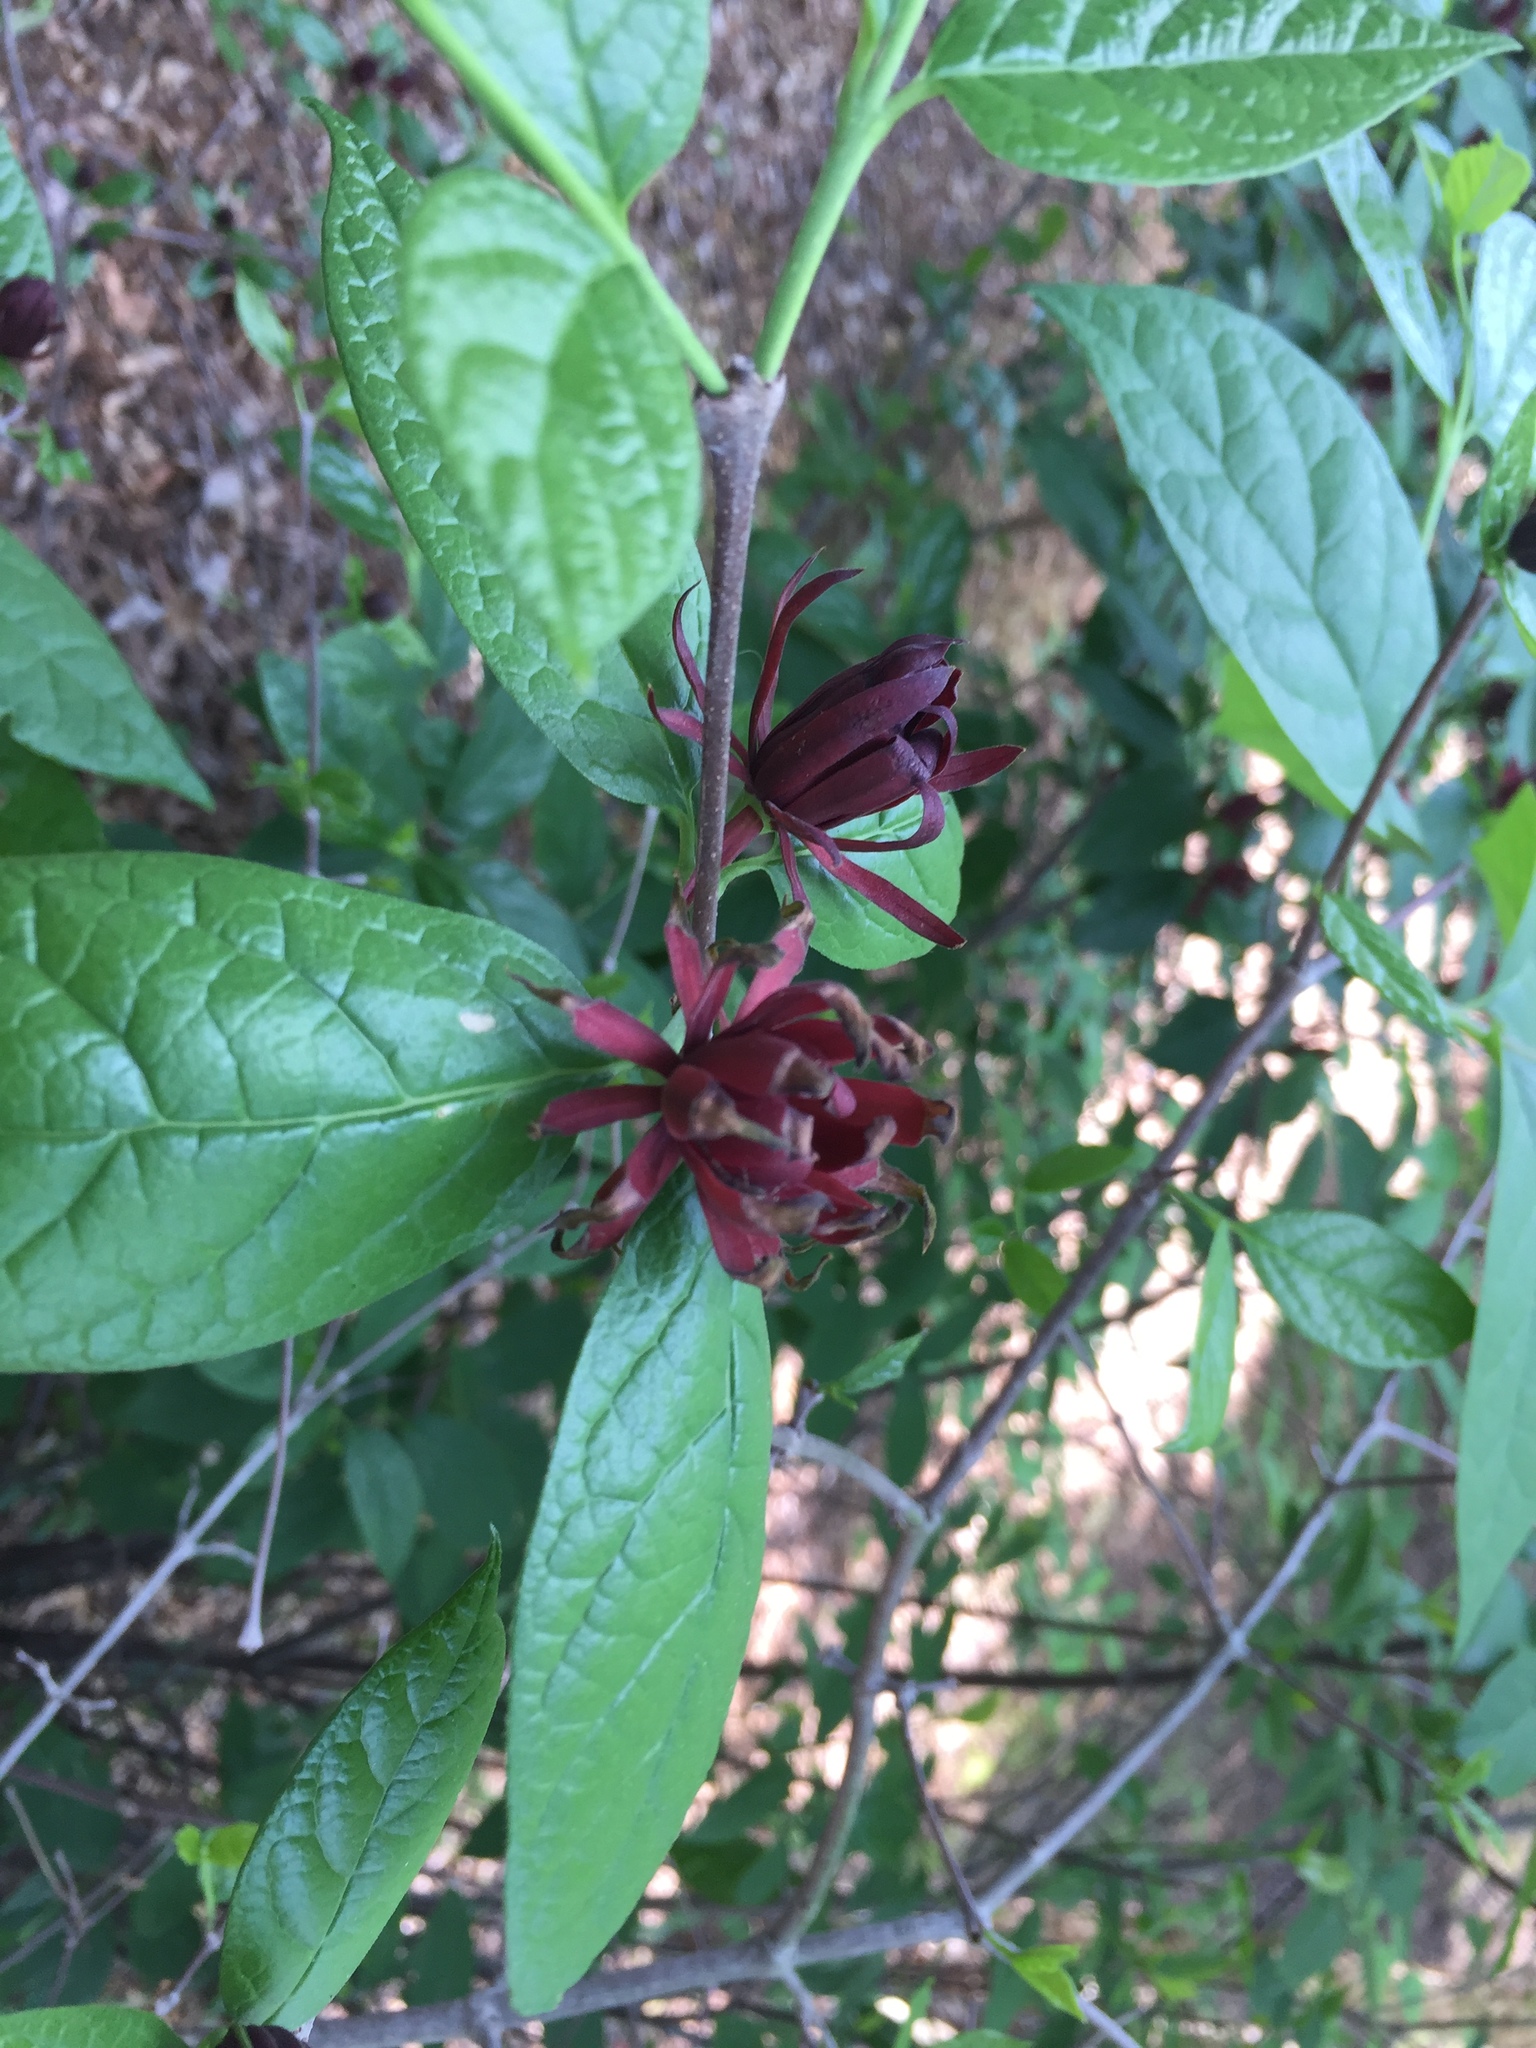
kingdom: Plantae
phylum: Tracheophyta
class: Magnoliopsida
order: Laurales
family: Calycanthaceae
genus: Calycanthus
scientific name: Calycanthus floridus
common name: Carolina-allspice
